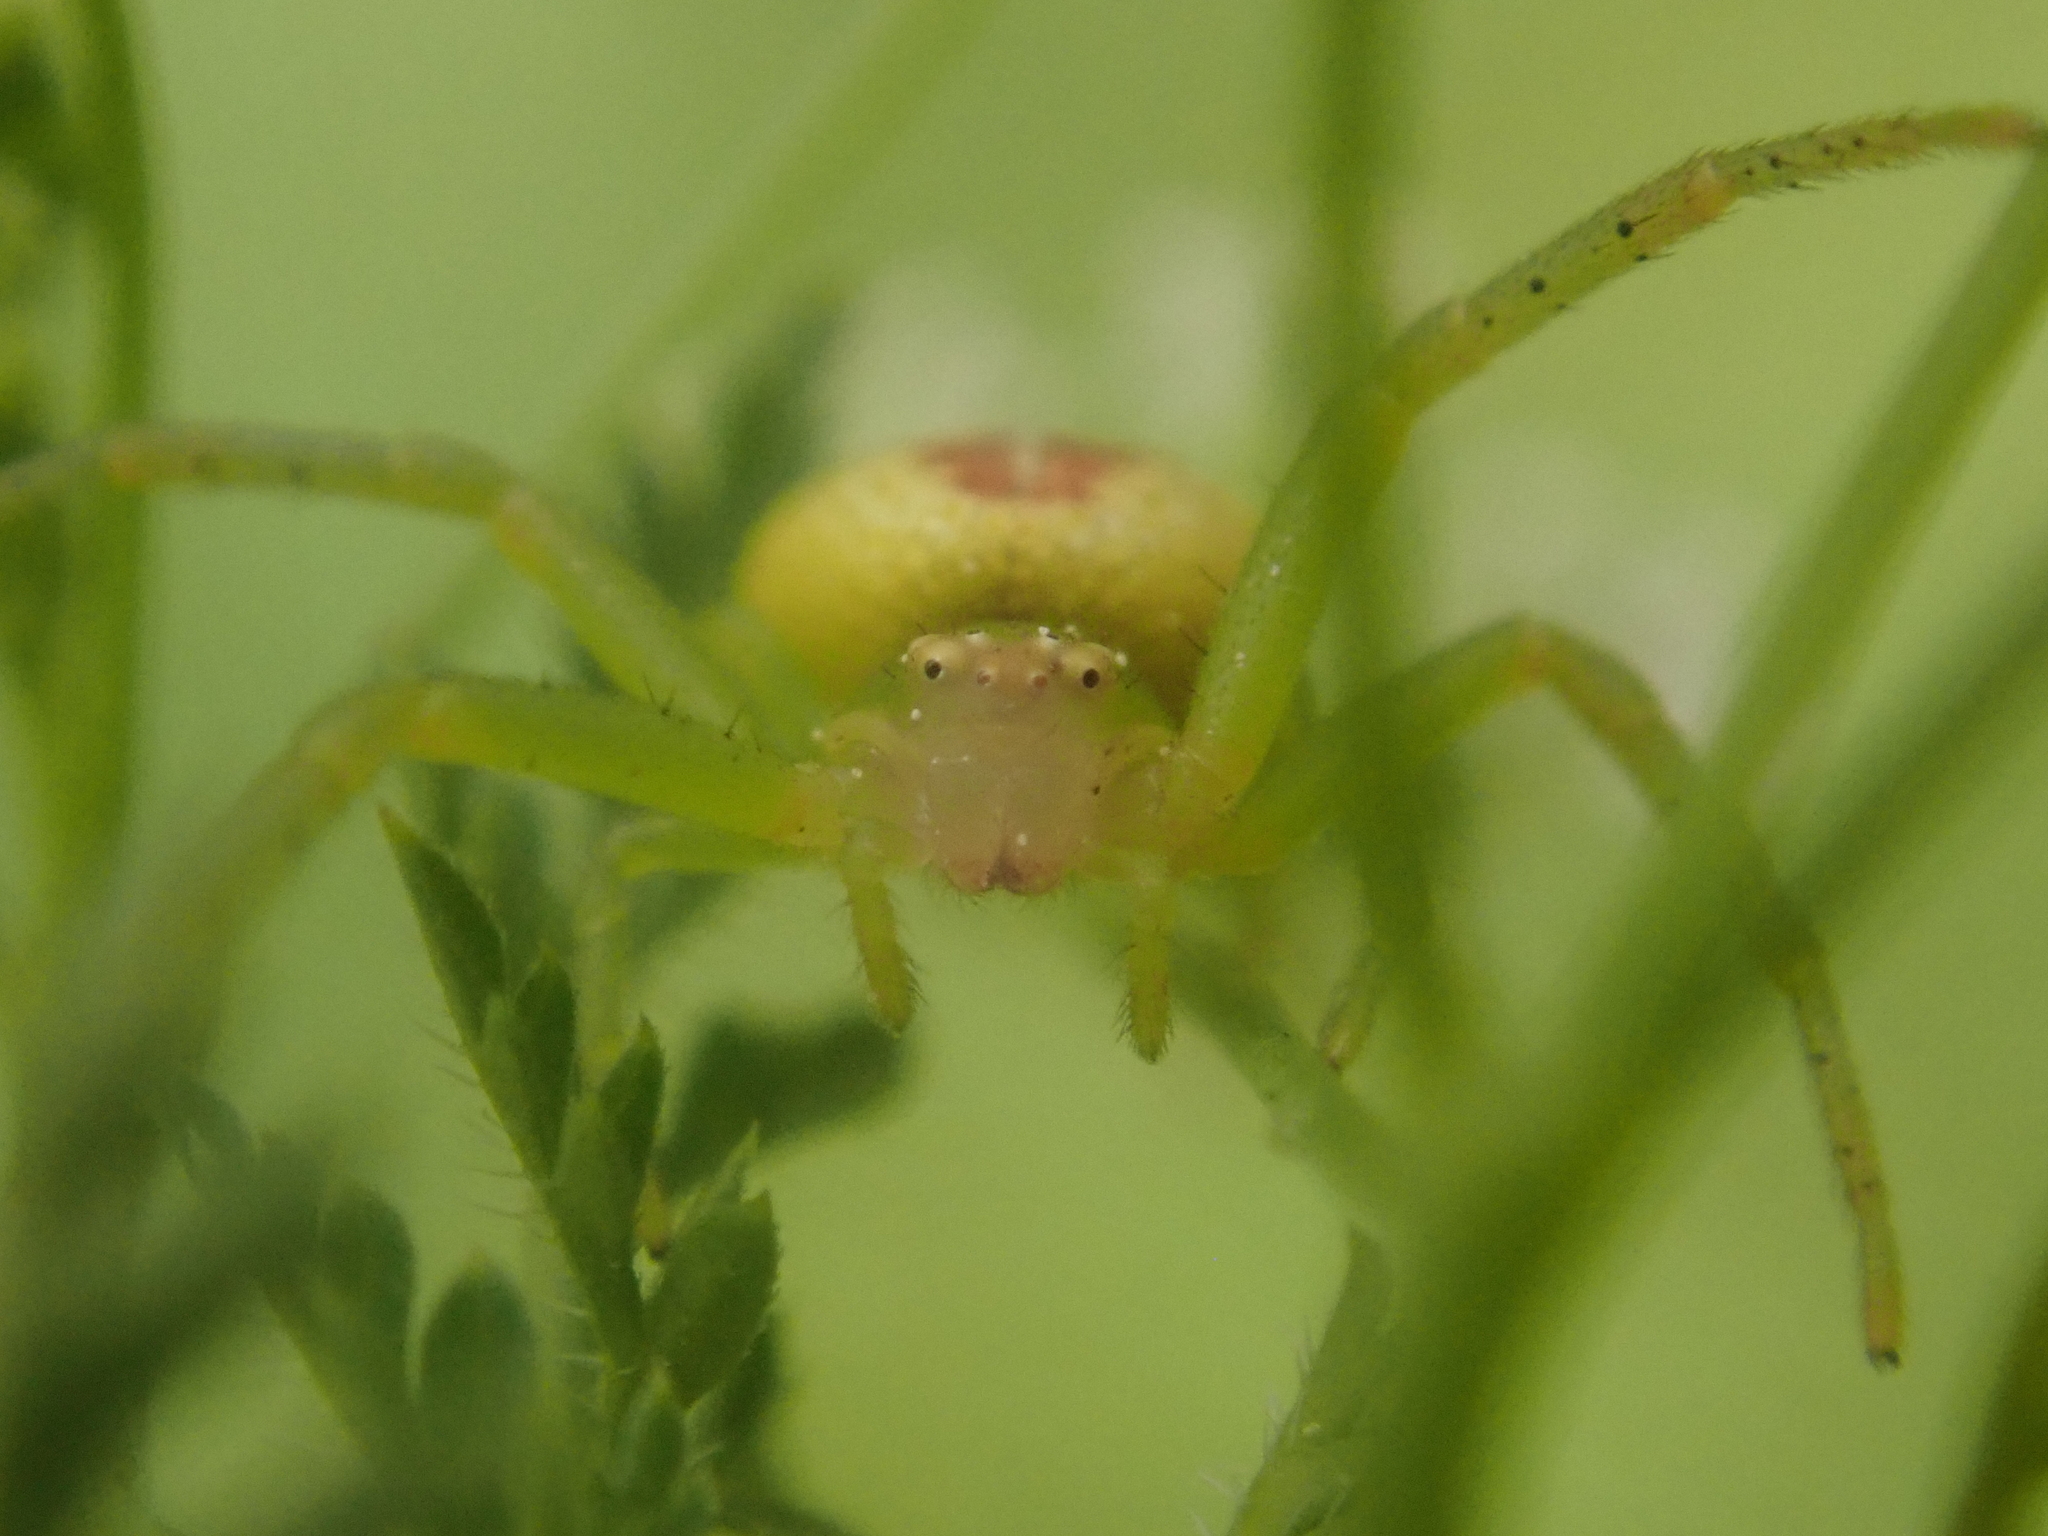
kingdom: Animalia
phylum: Arthropoda
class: Arachnida
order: Araneae
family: Thomisidae
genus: Ebrechtella
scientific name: Ebrechtella tricuspidata
